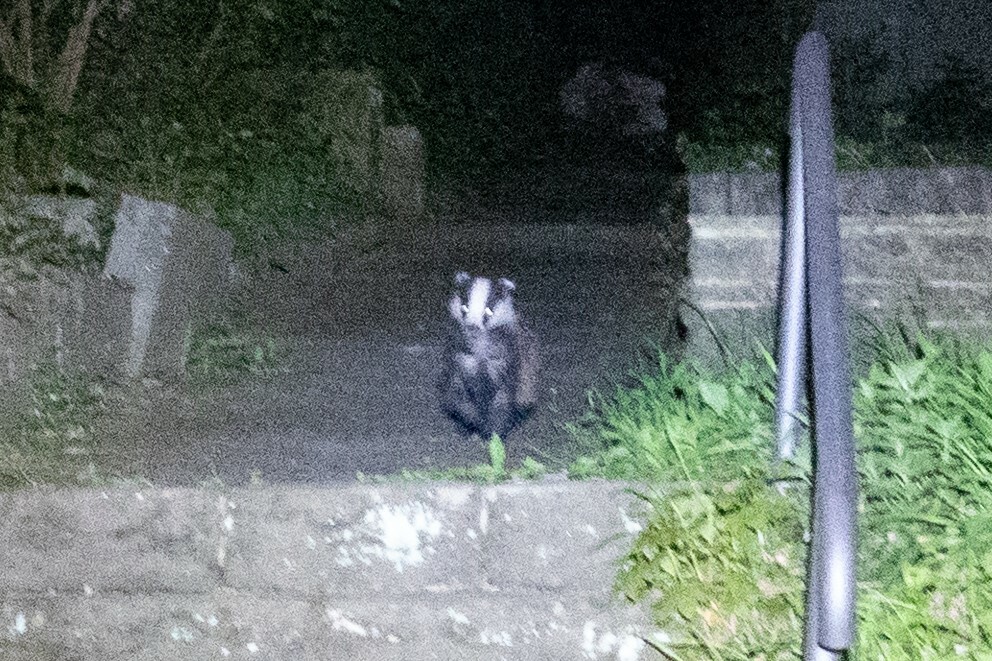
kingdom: Animalia
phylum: Chordata
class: Mammalia
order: Carnivora
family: Mustelidae
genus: Meles
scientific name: Meles meles
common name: Eurasian badger
